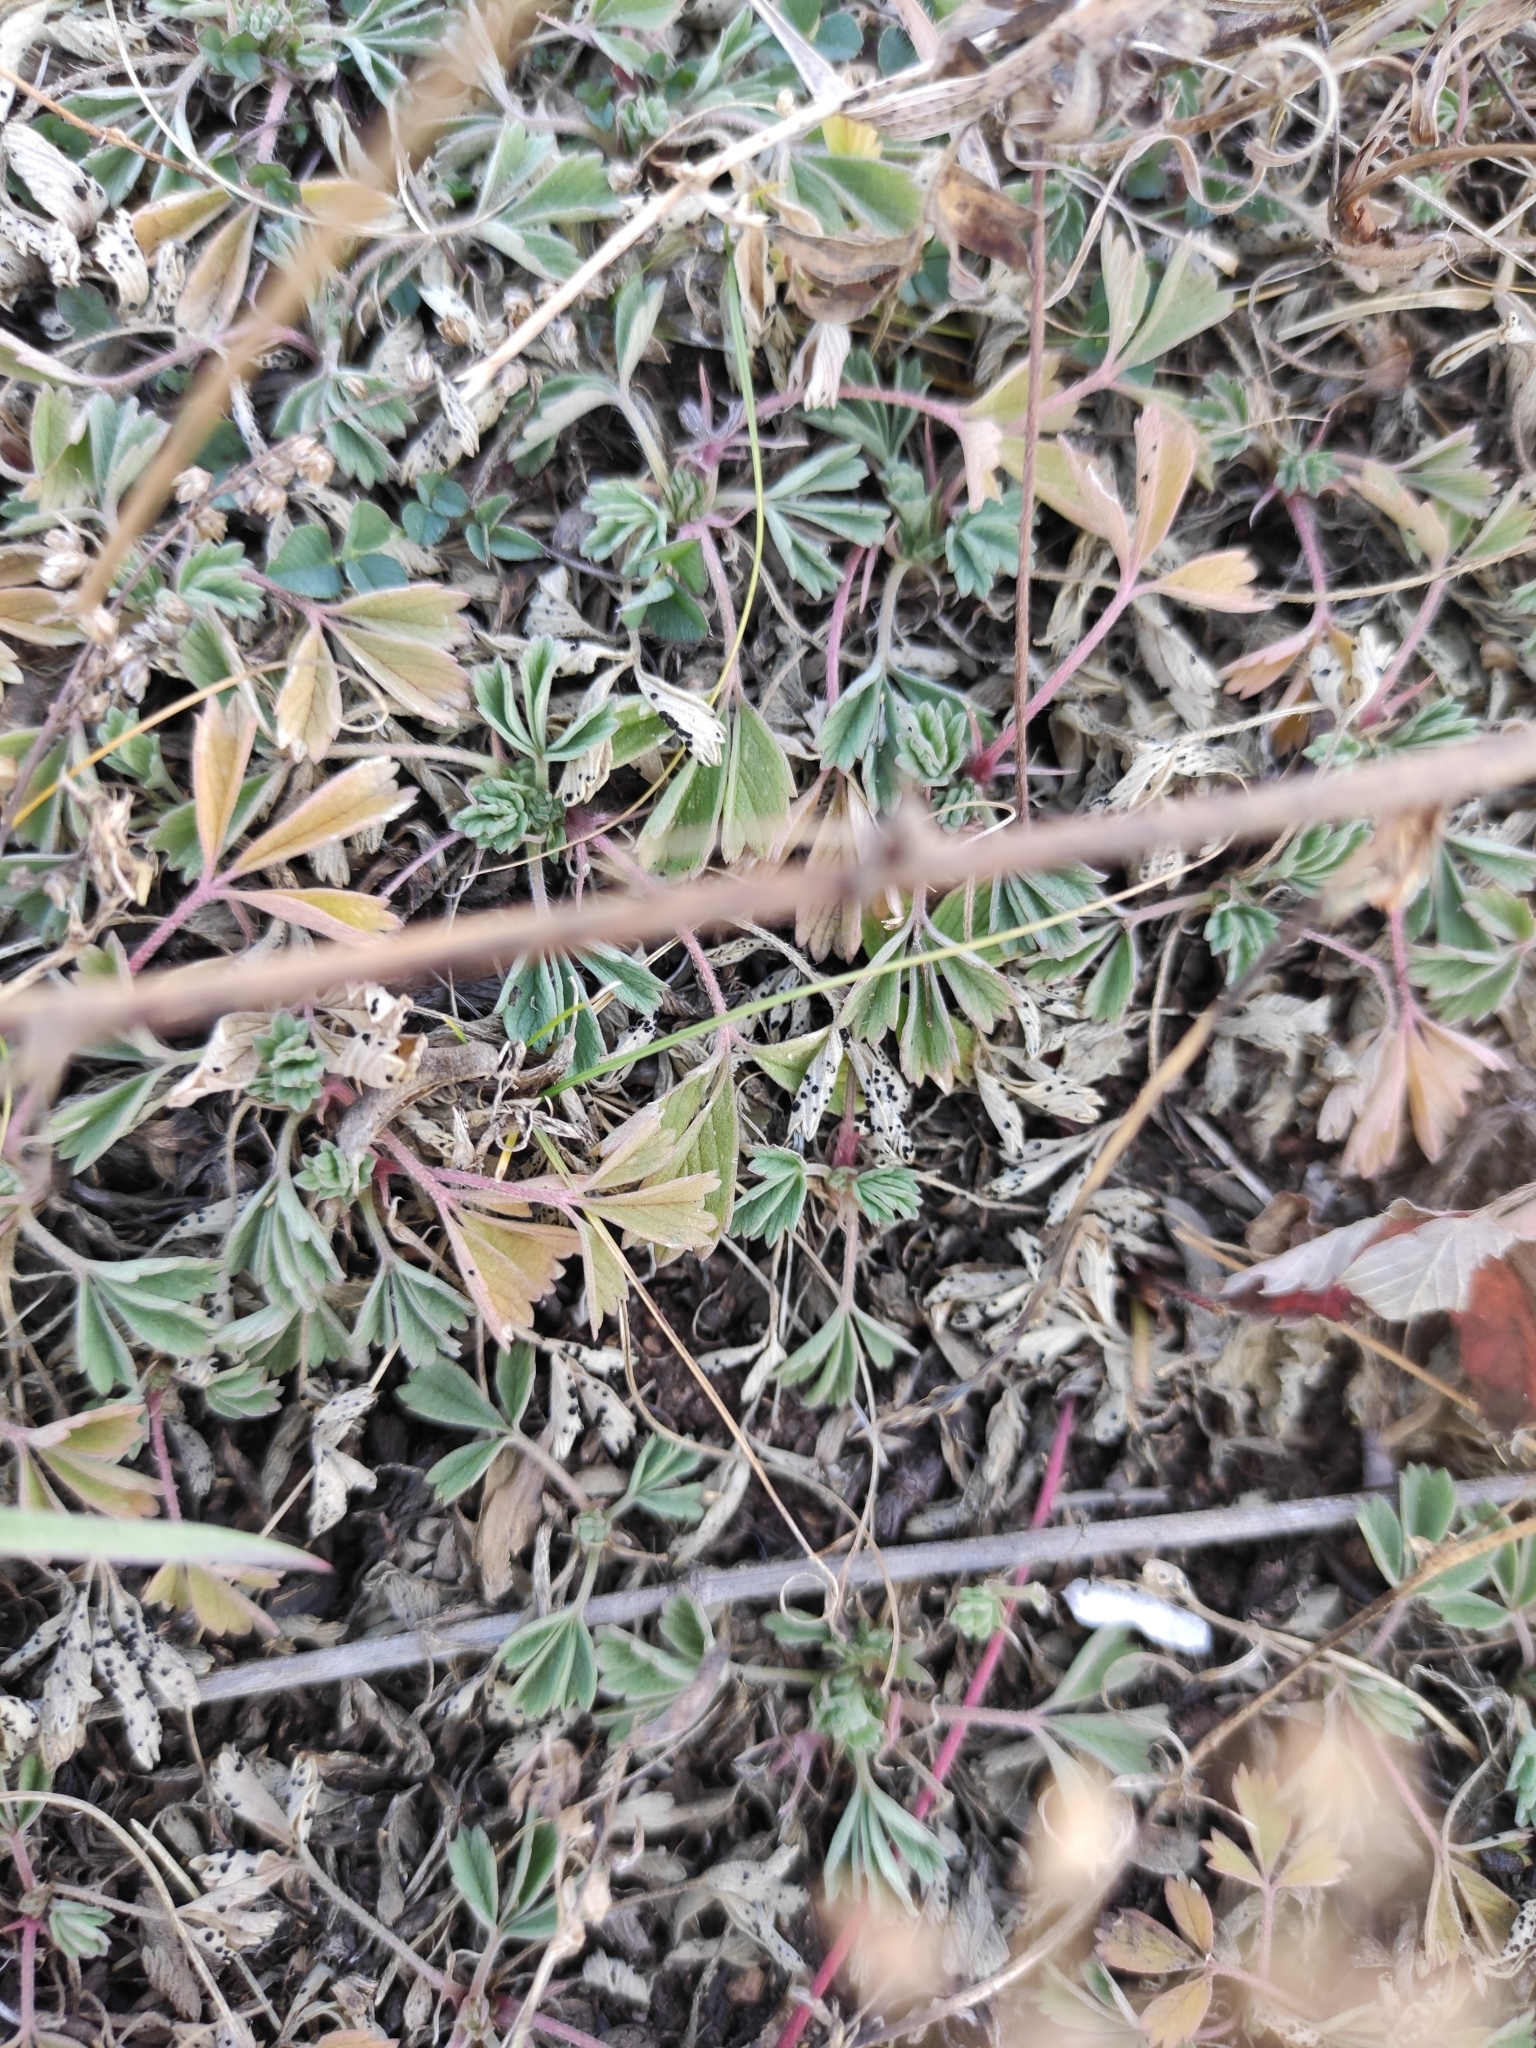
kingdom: Plantae
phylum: Tracheophyta
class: Magnoliopsida
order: Rosales
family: Rosaceae
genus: Potentilla
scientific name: Potentilla acaulis
